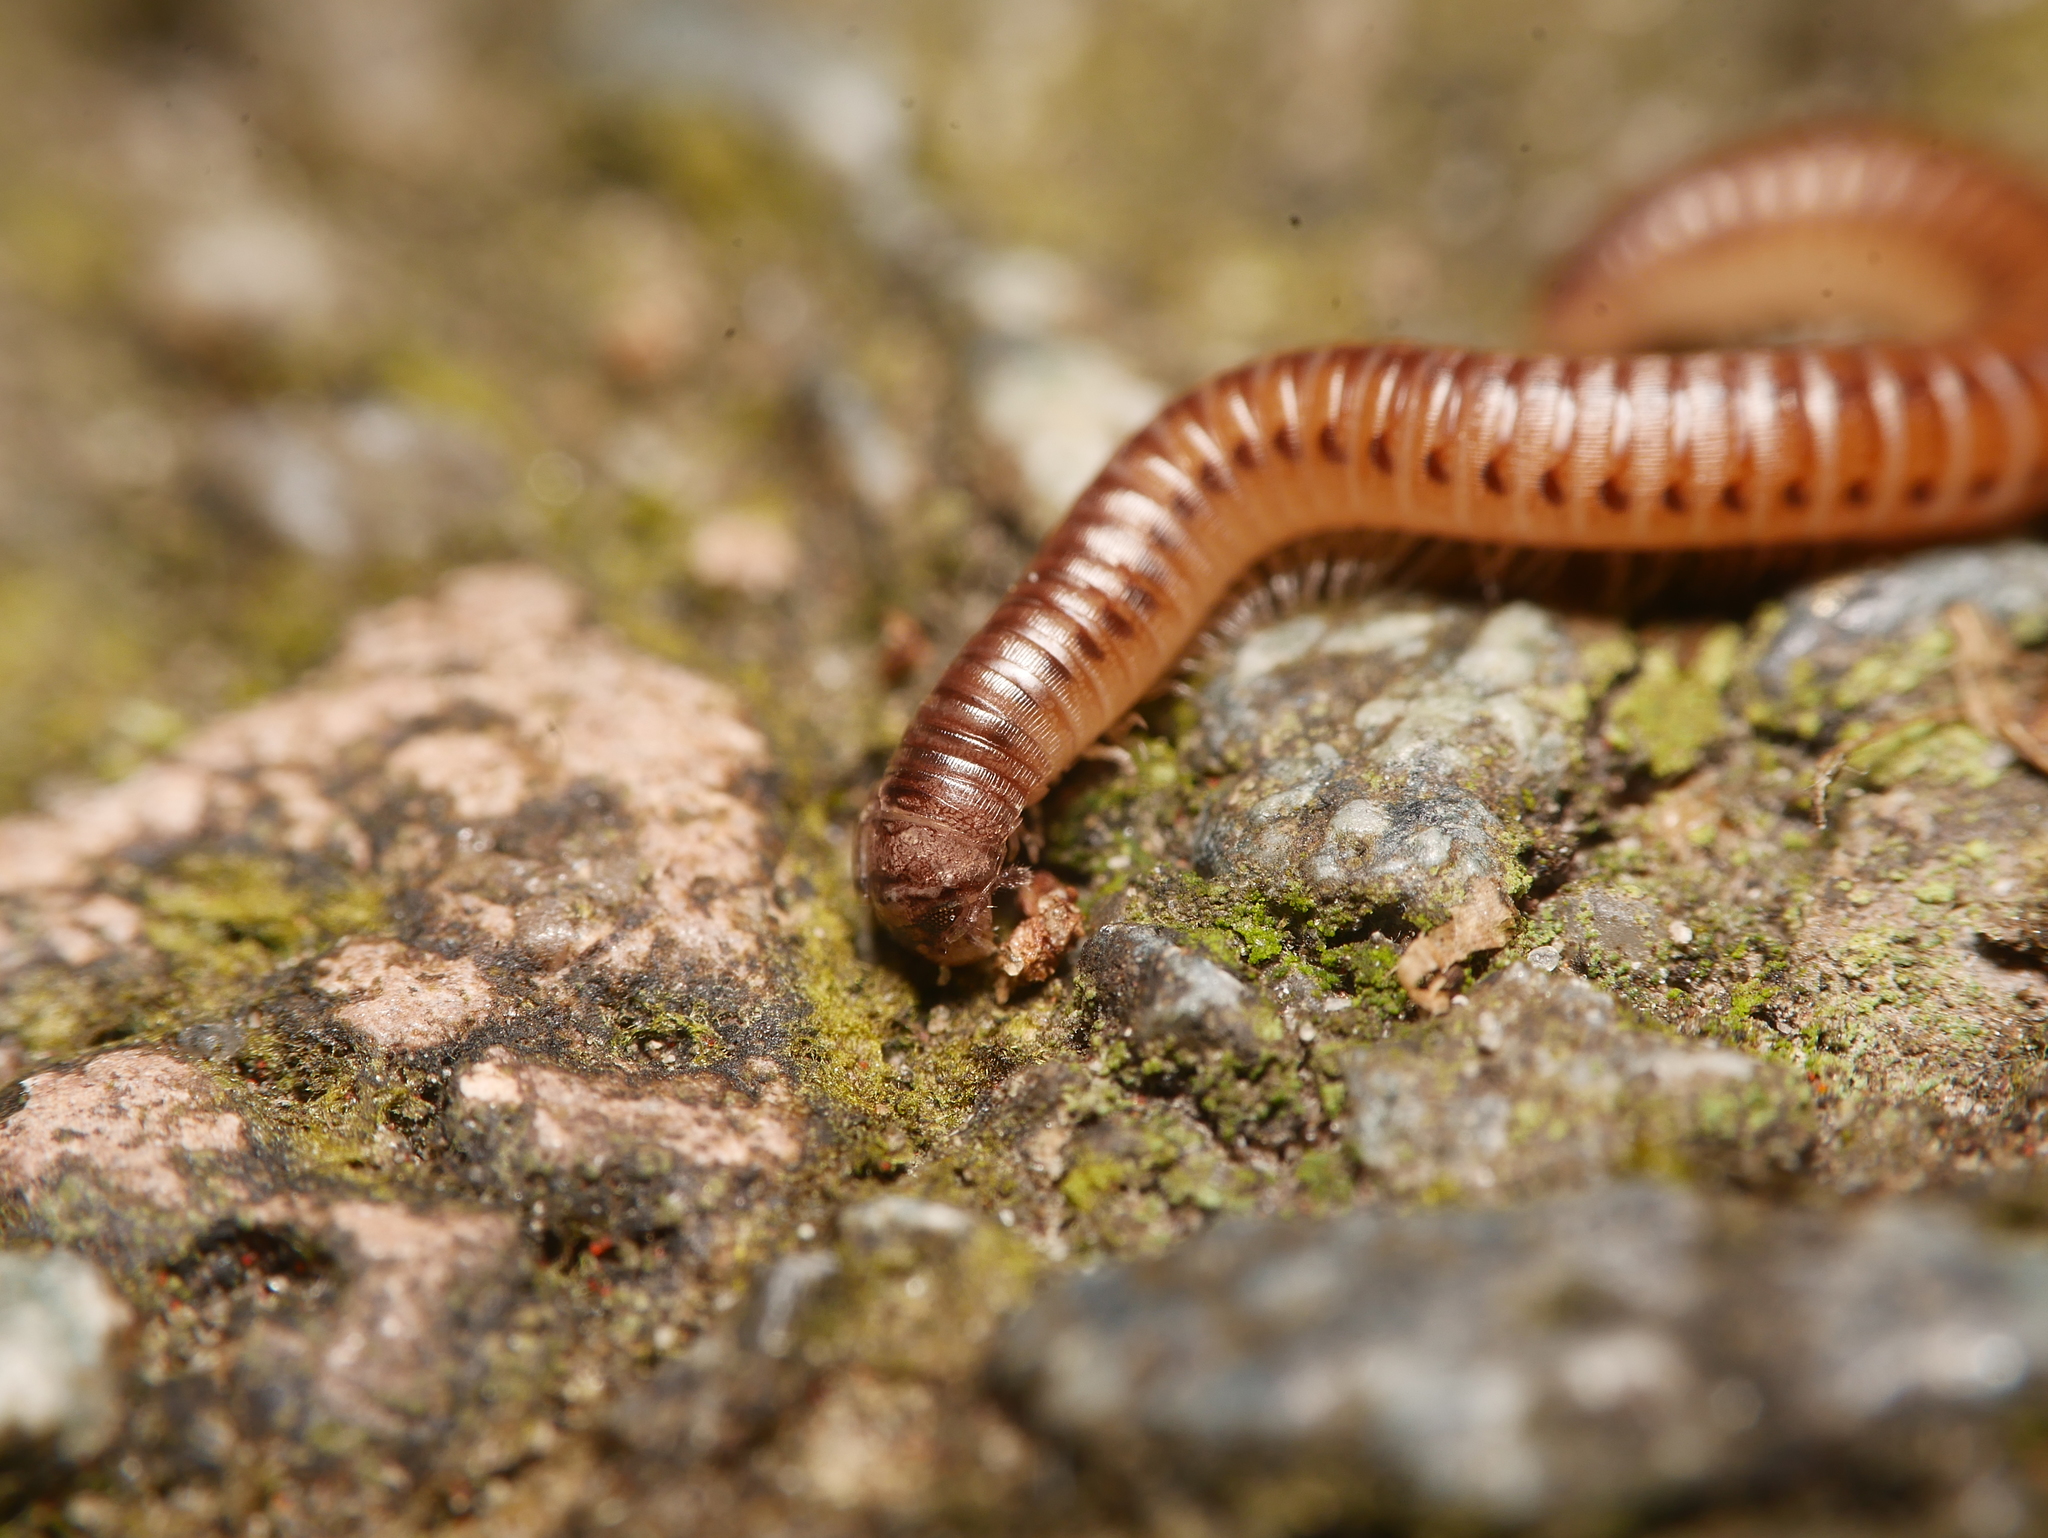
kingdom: Animalia
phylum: Arthropoda
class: Diplopoda
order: Julida
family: Julidae
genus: Cylindroiulus
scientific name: Cylindroiulus punctatus
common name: Blunt-tailed millipede
